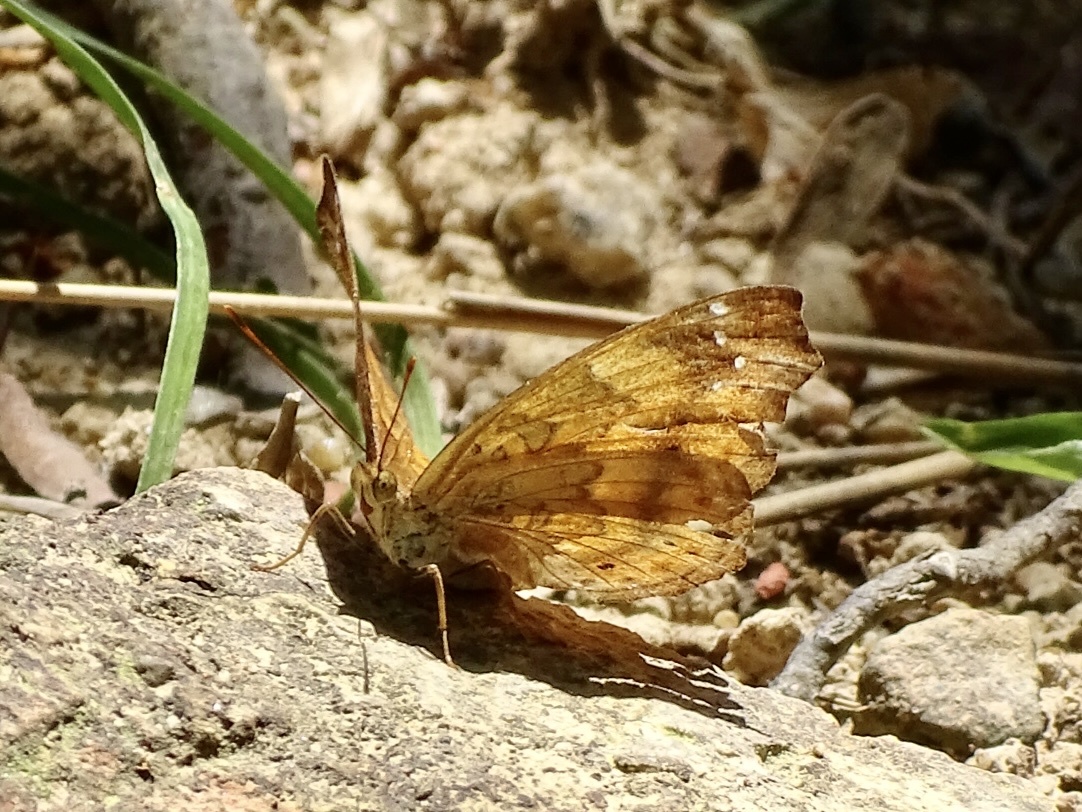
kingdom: Animalia
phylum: Arthropoda
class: Insecta
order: Lepidoptera
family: Nymphalidae
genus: Apatura
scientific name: Apatura Rohana spec
